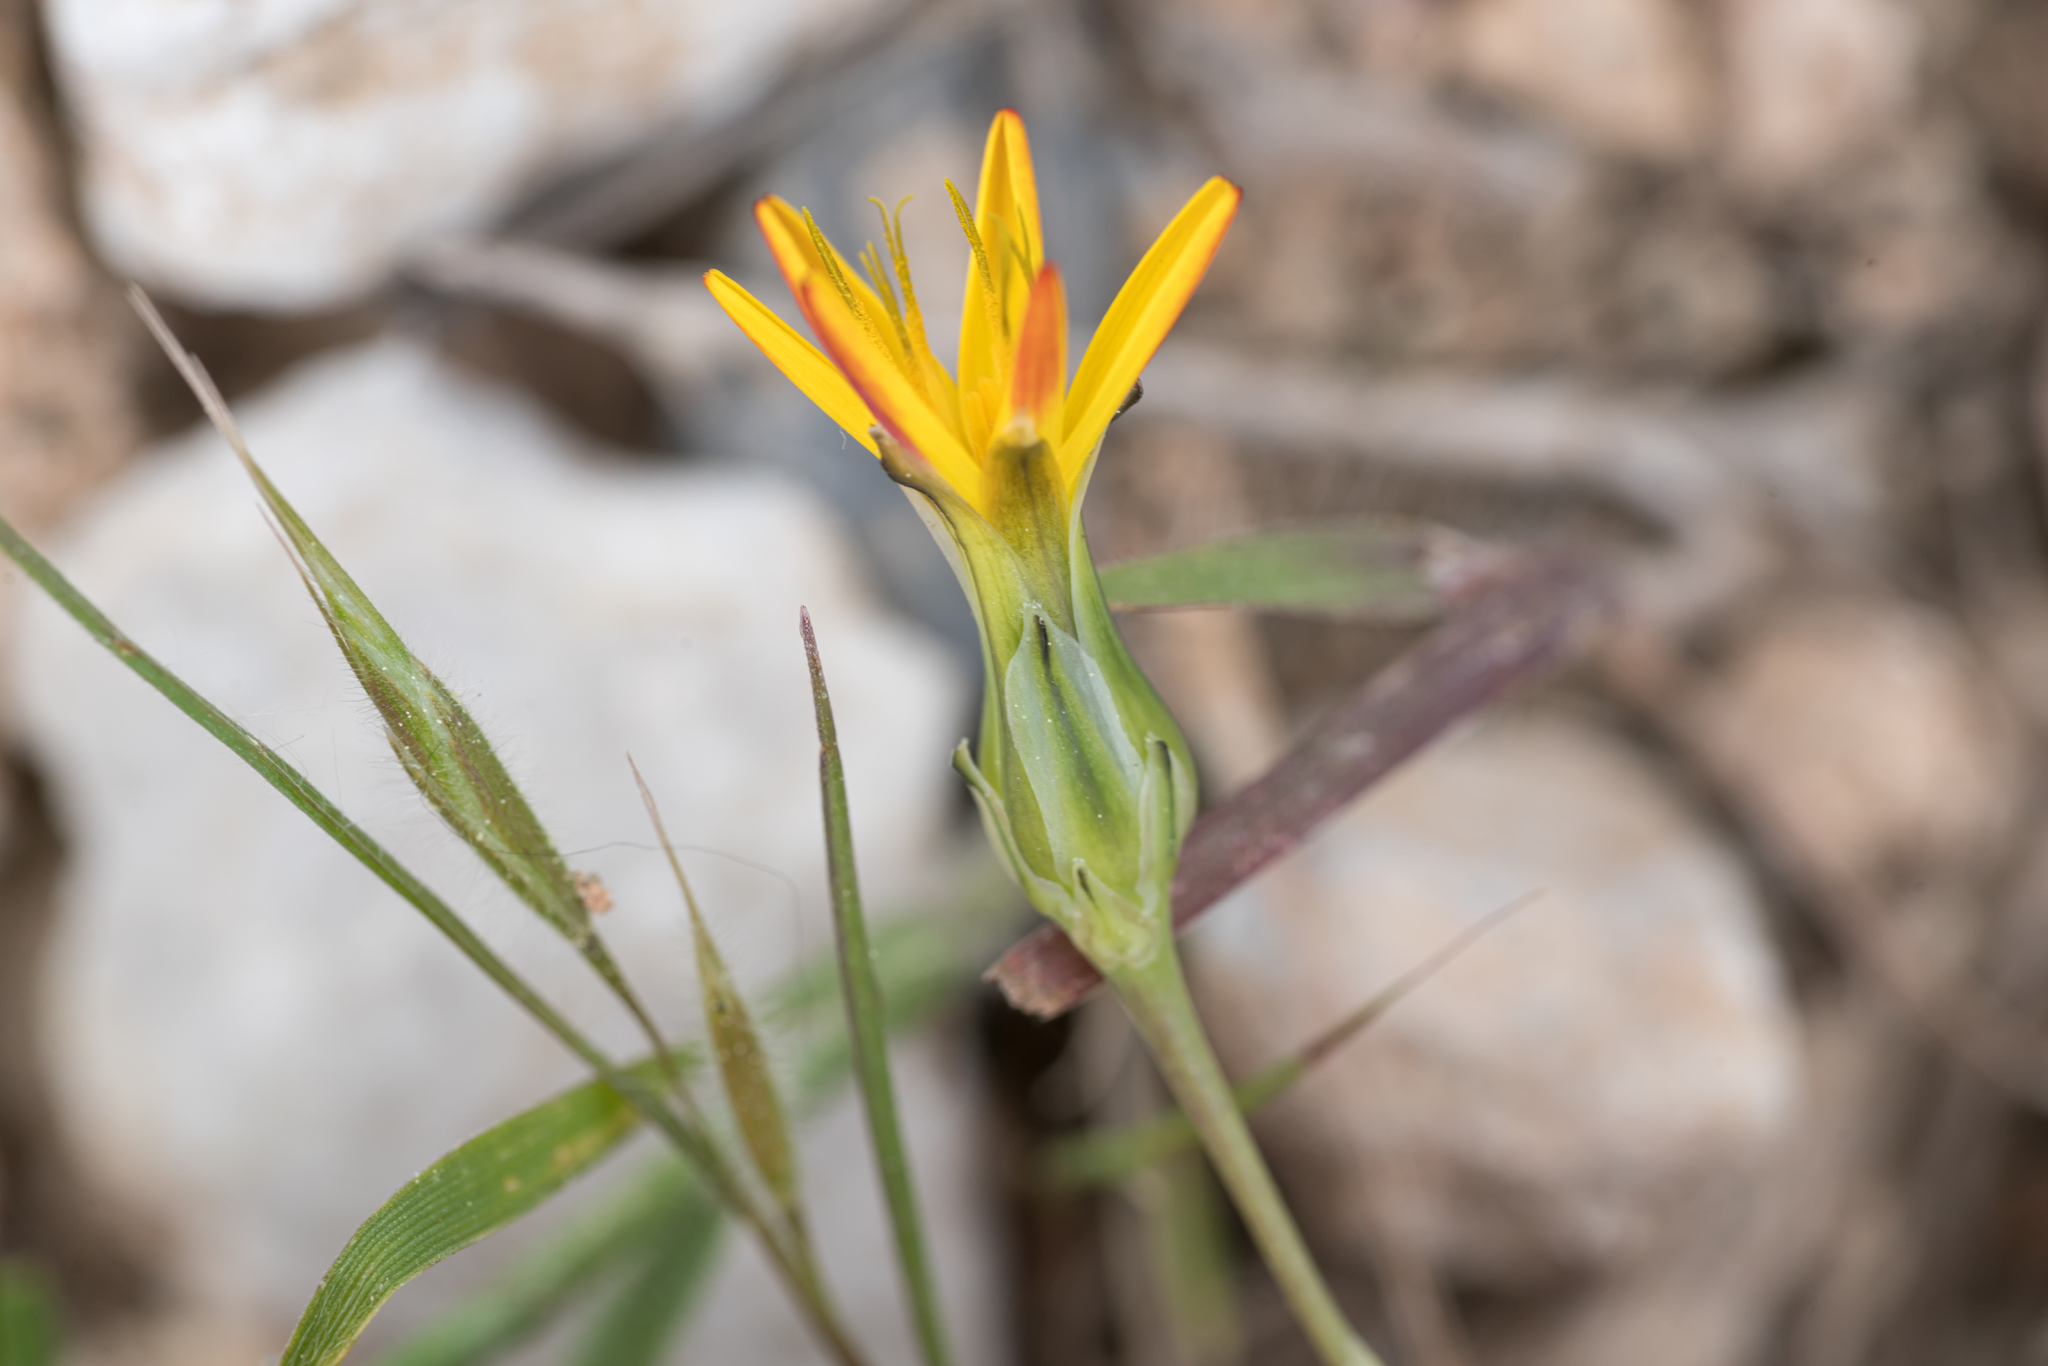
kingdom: Plantae
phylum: Tracheophyta
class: Magnoliopsida
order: Asterales
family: Asteraceae
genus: Reichardia
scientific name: Reichardia intermedia
